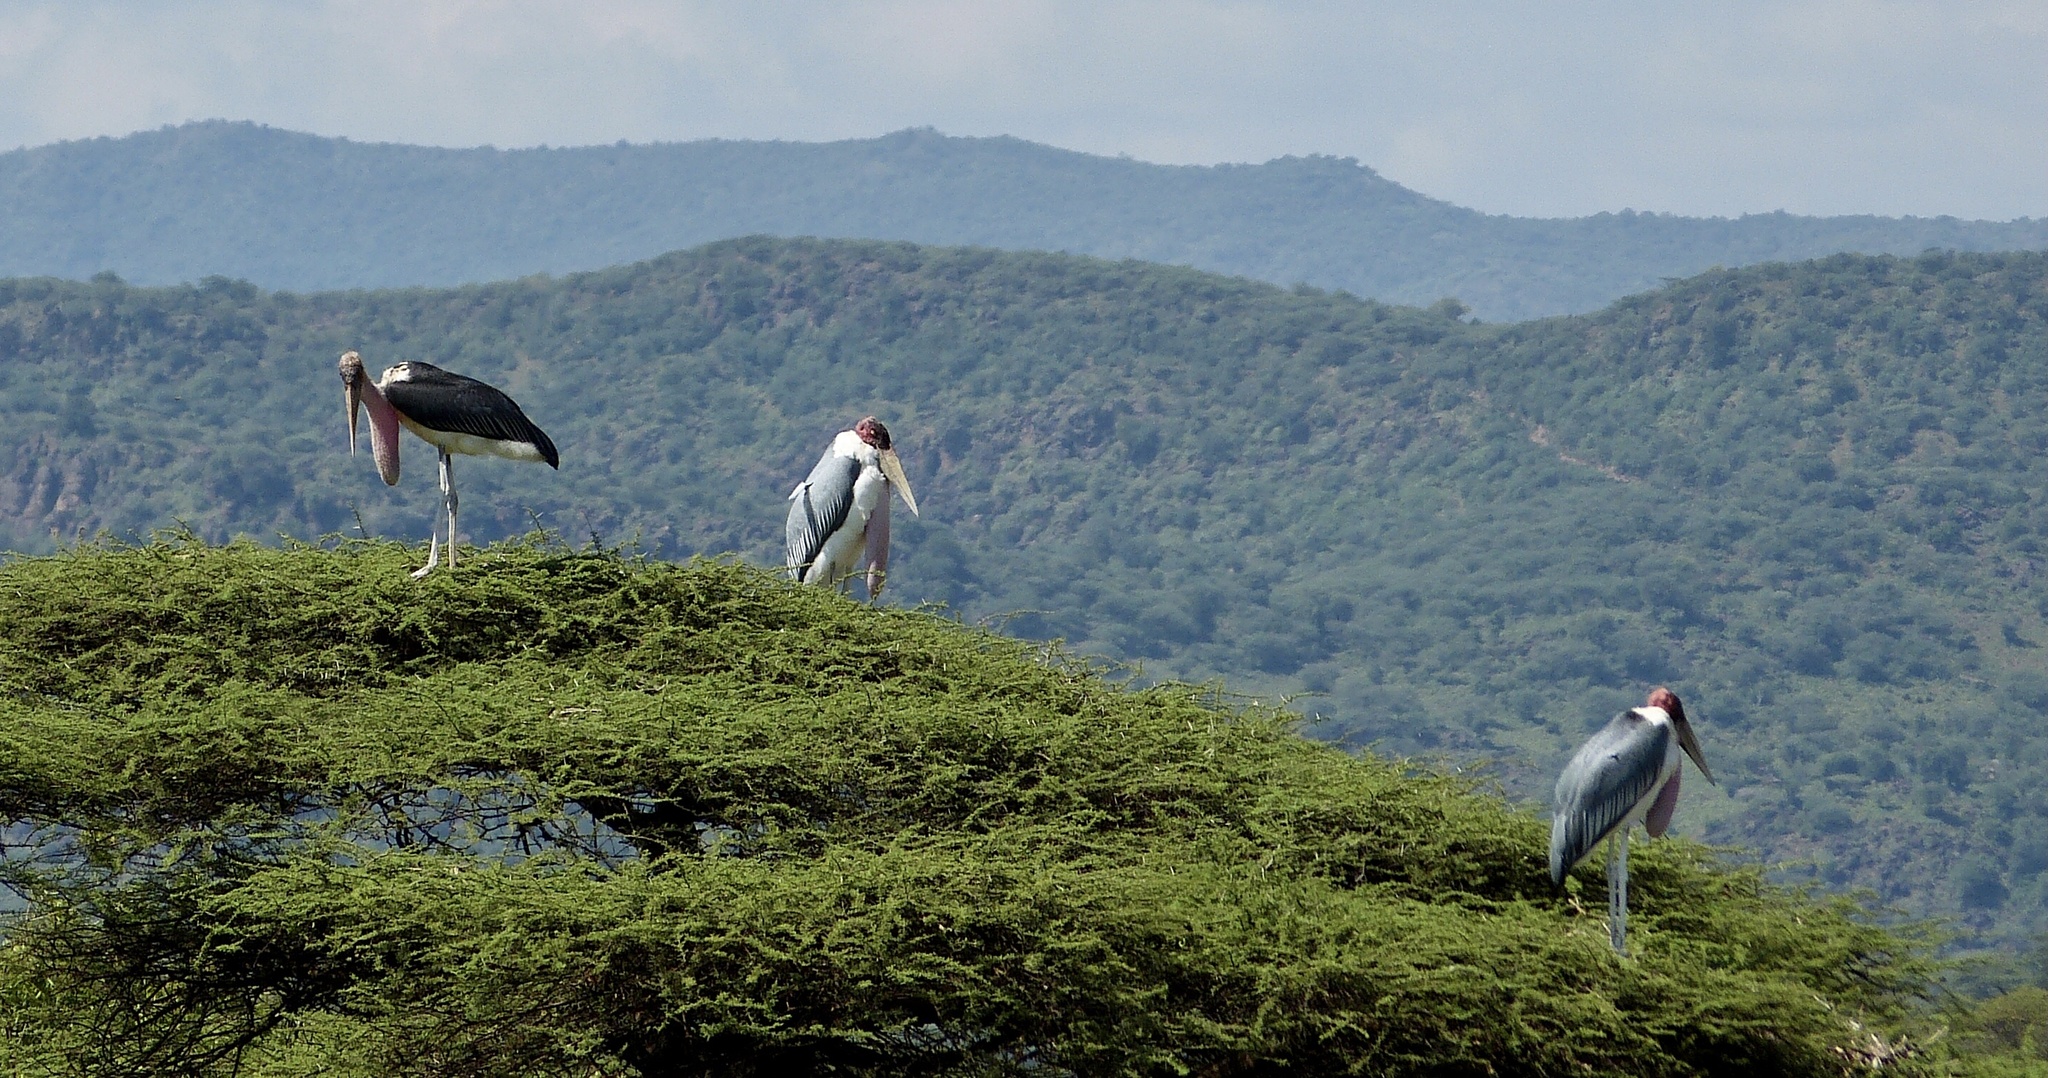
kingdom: Animalia
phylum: Chordata
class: Aves
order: Ciconiiformes
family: Ciconiidae
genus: Leptoptilos
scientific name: Leptoptilos crumenifer
